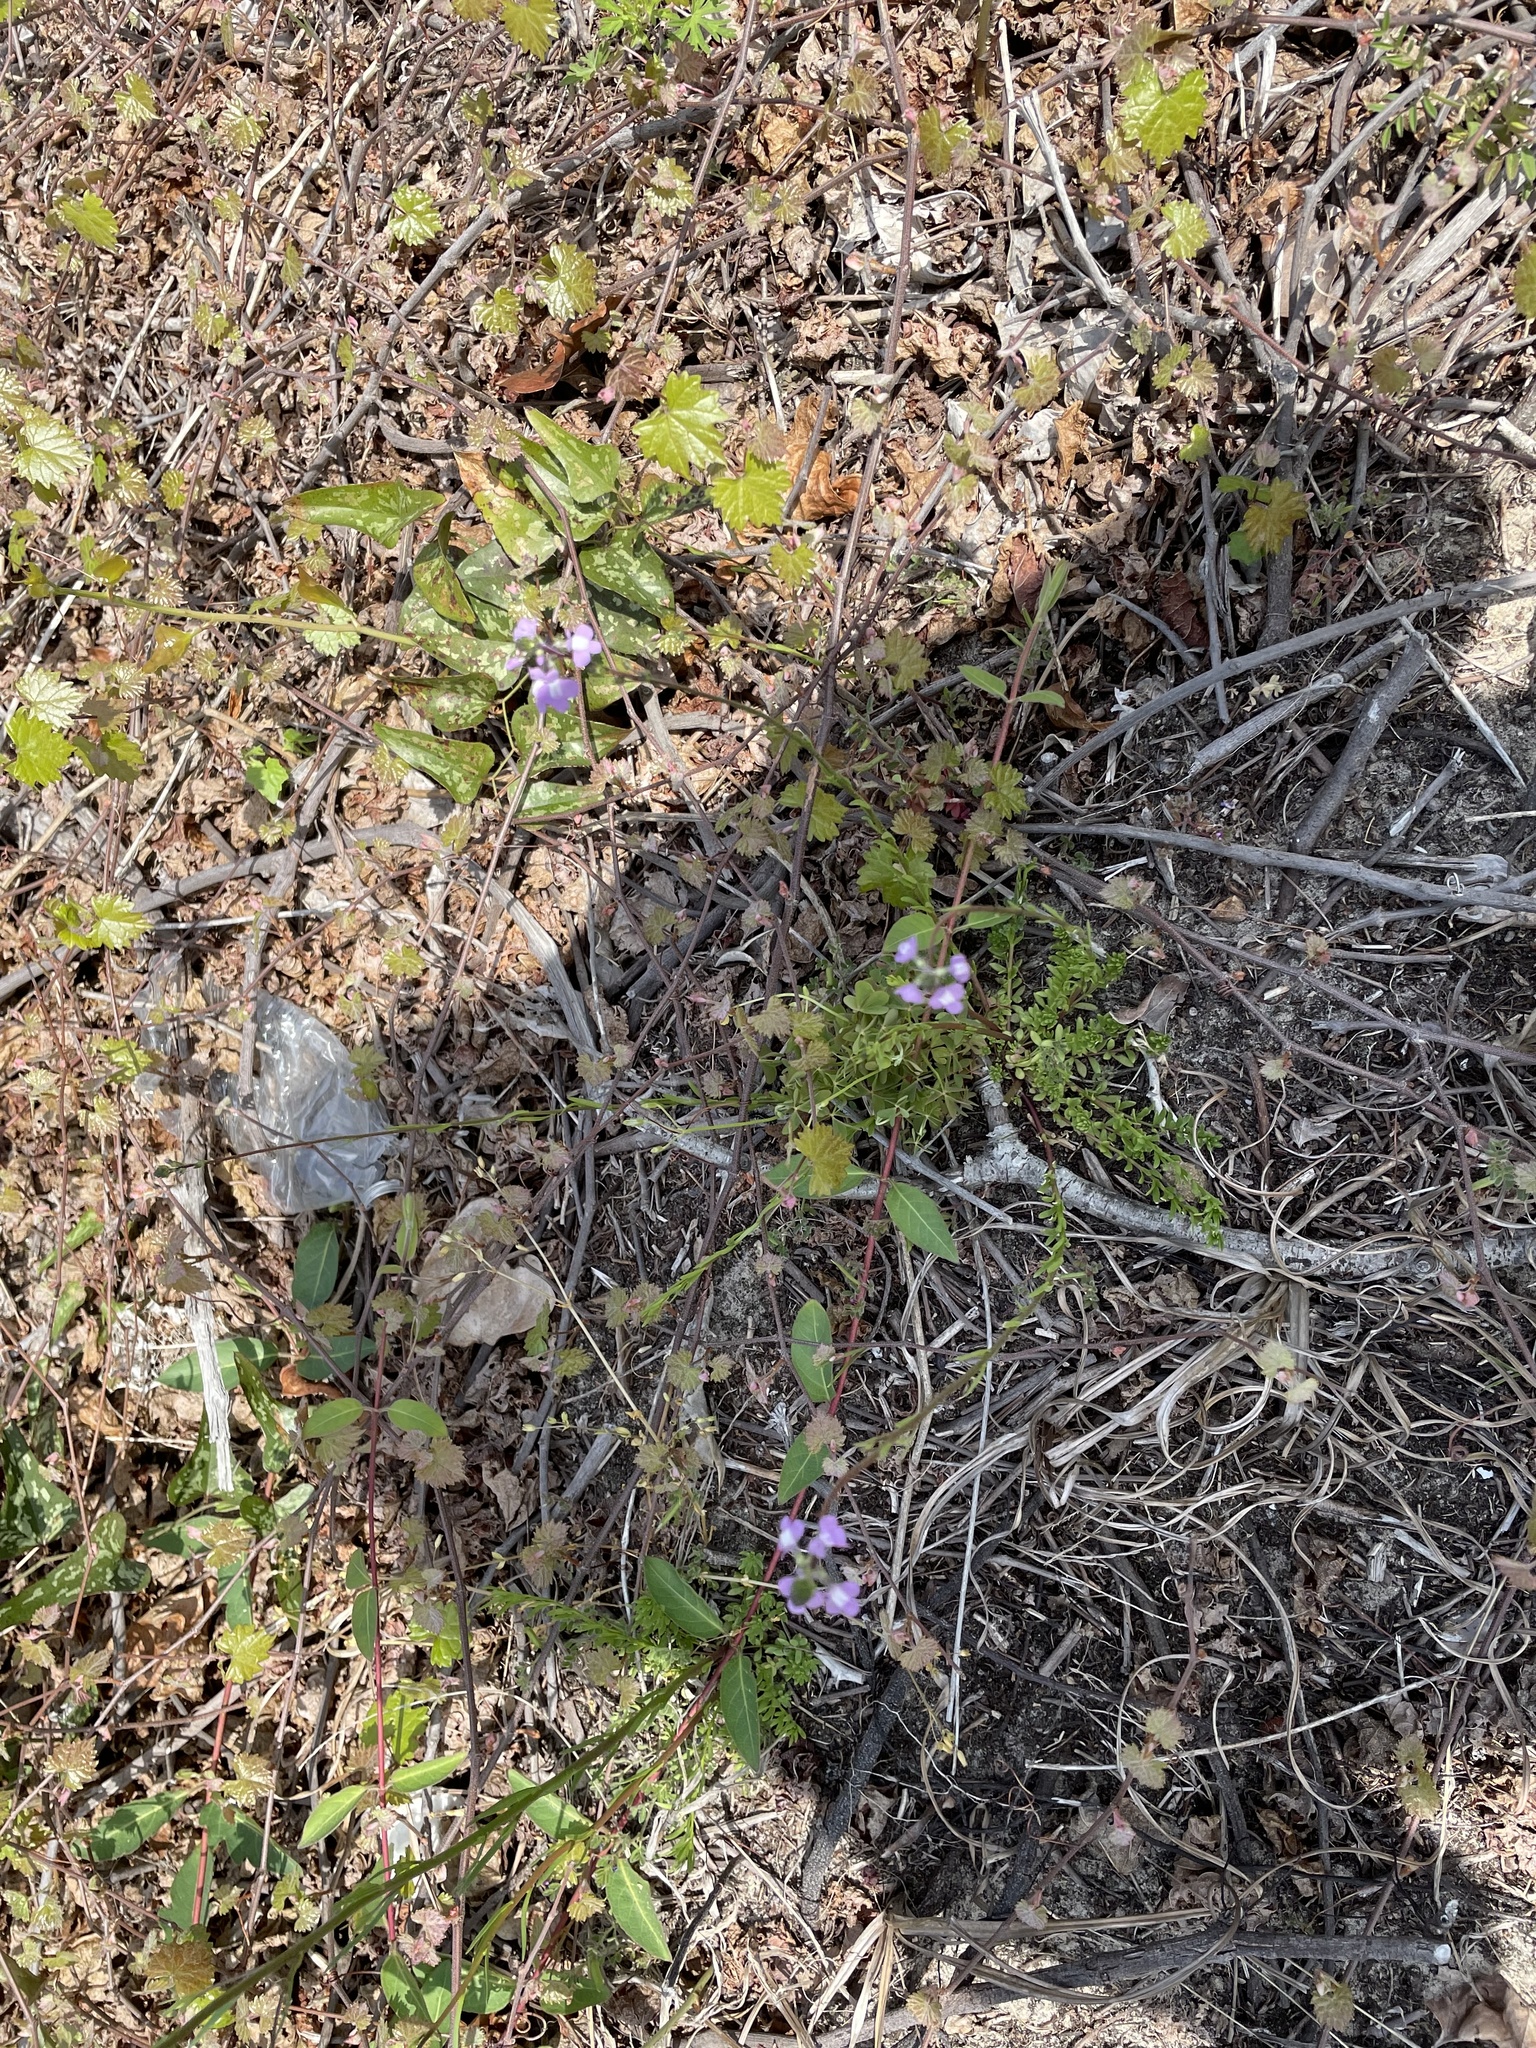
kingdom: Plantae
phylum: Tracheophyta
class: Magnoliopsida
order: Lamiales
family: Plantaginaceae
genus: Nuttallanthus
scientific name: Nuttallanthus canadensis
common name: Blue toadflax
